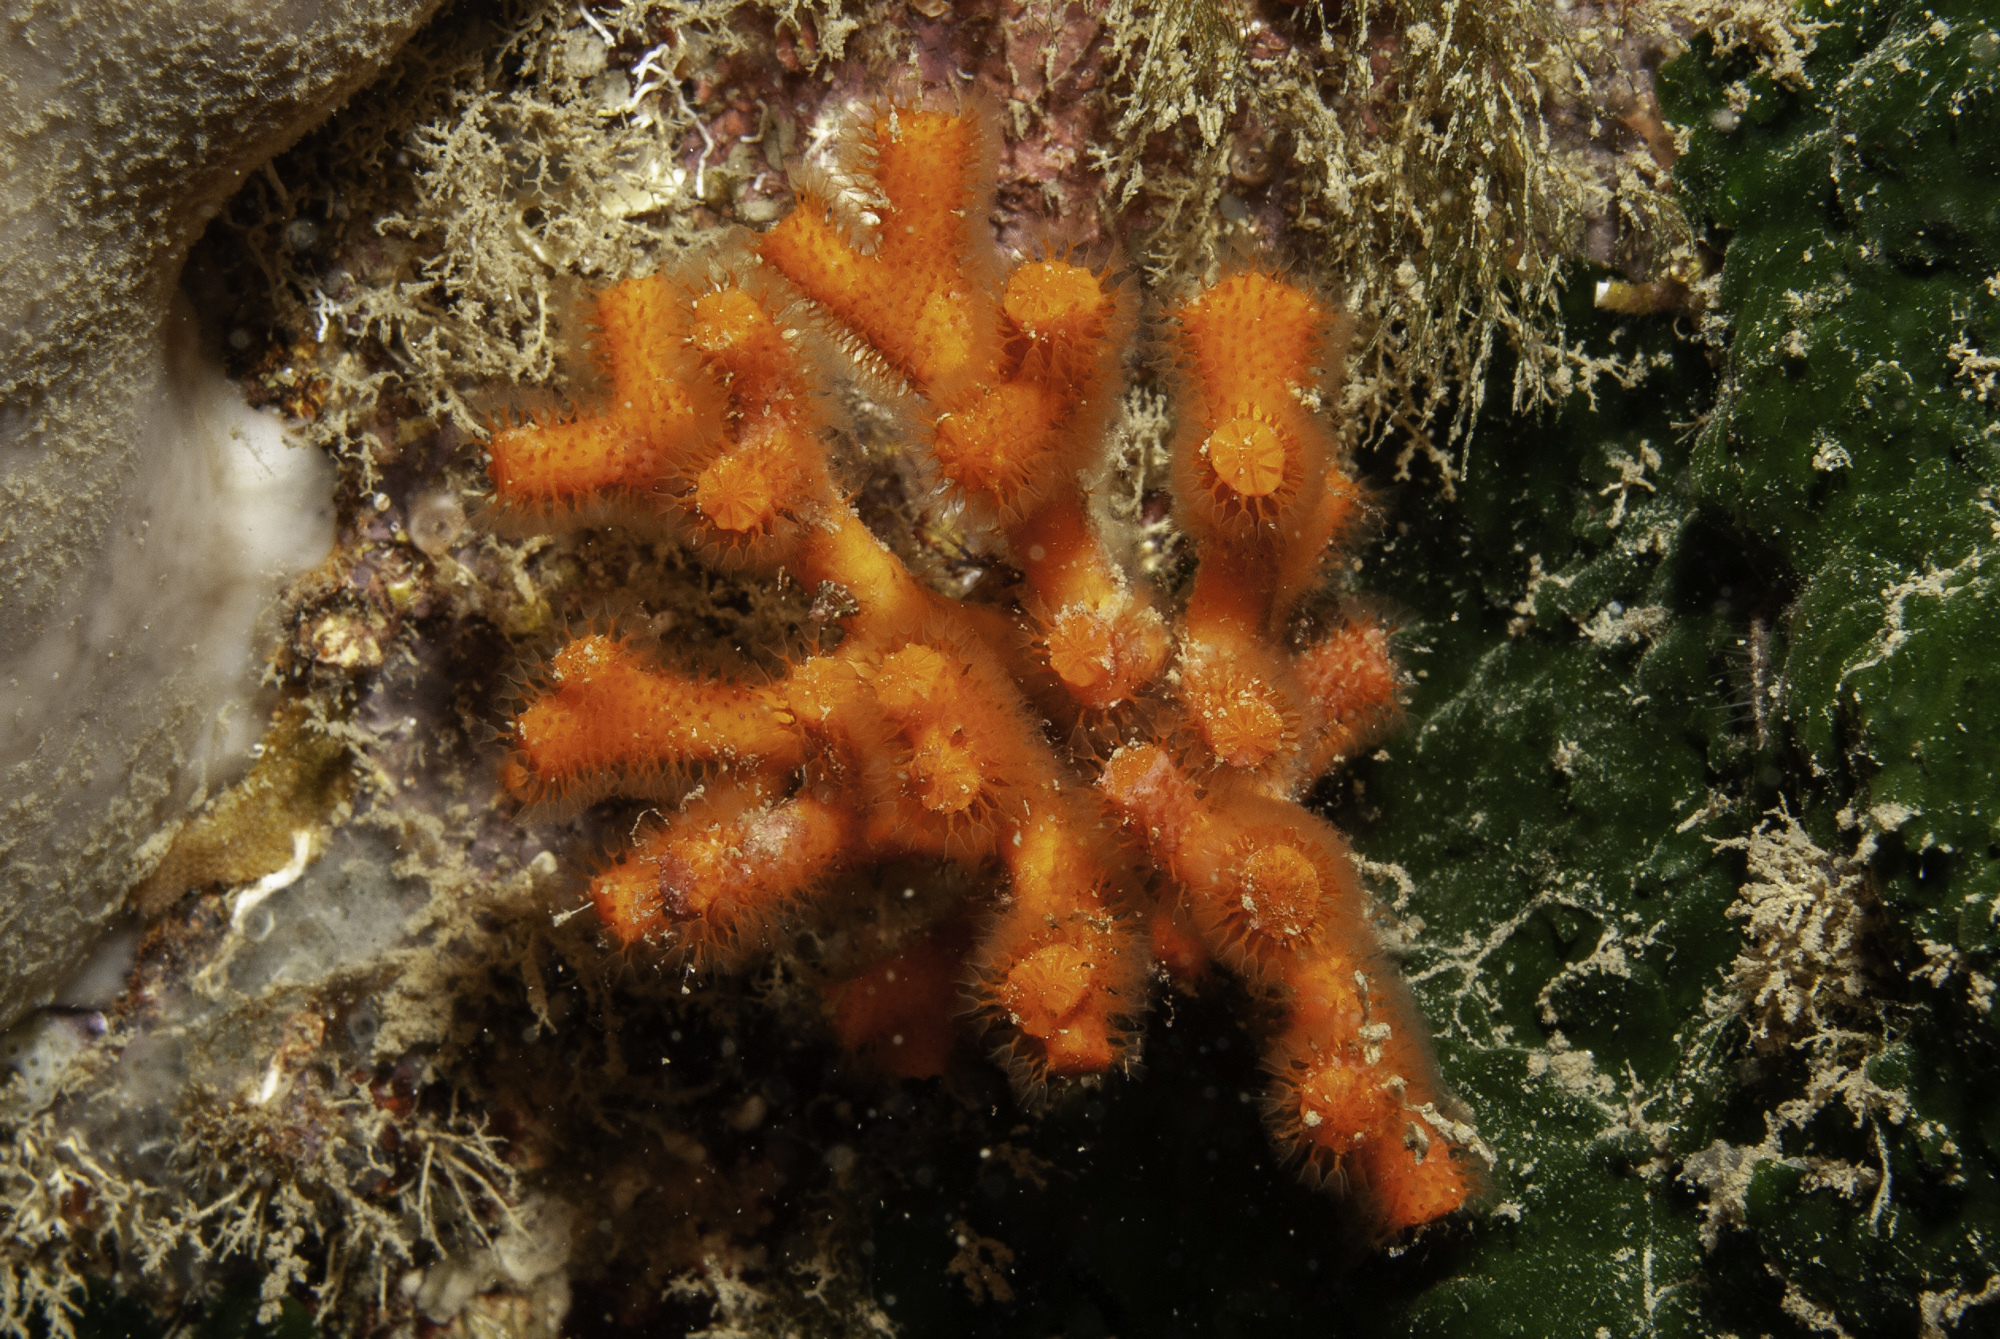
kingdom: Animalia
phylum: Bryozoa
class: Gymnolaemata
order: Cheilostomatida
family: Myriaporidae
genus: Myriapora
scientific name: Myriapora truncata
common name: False coral
